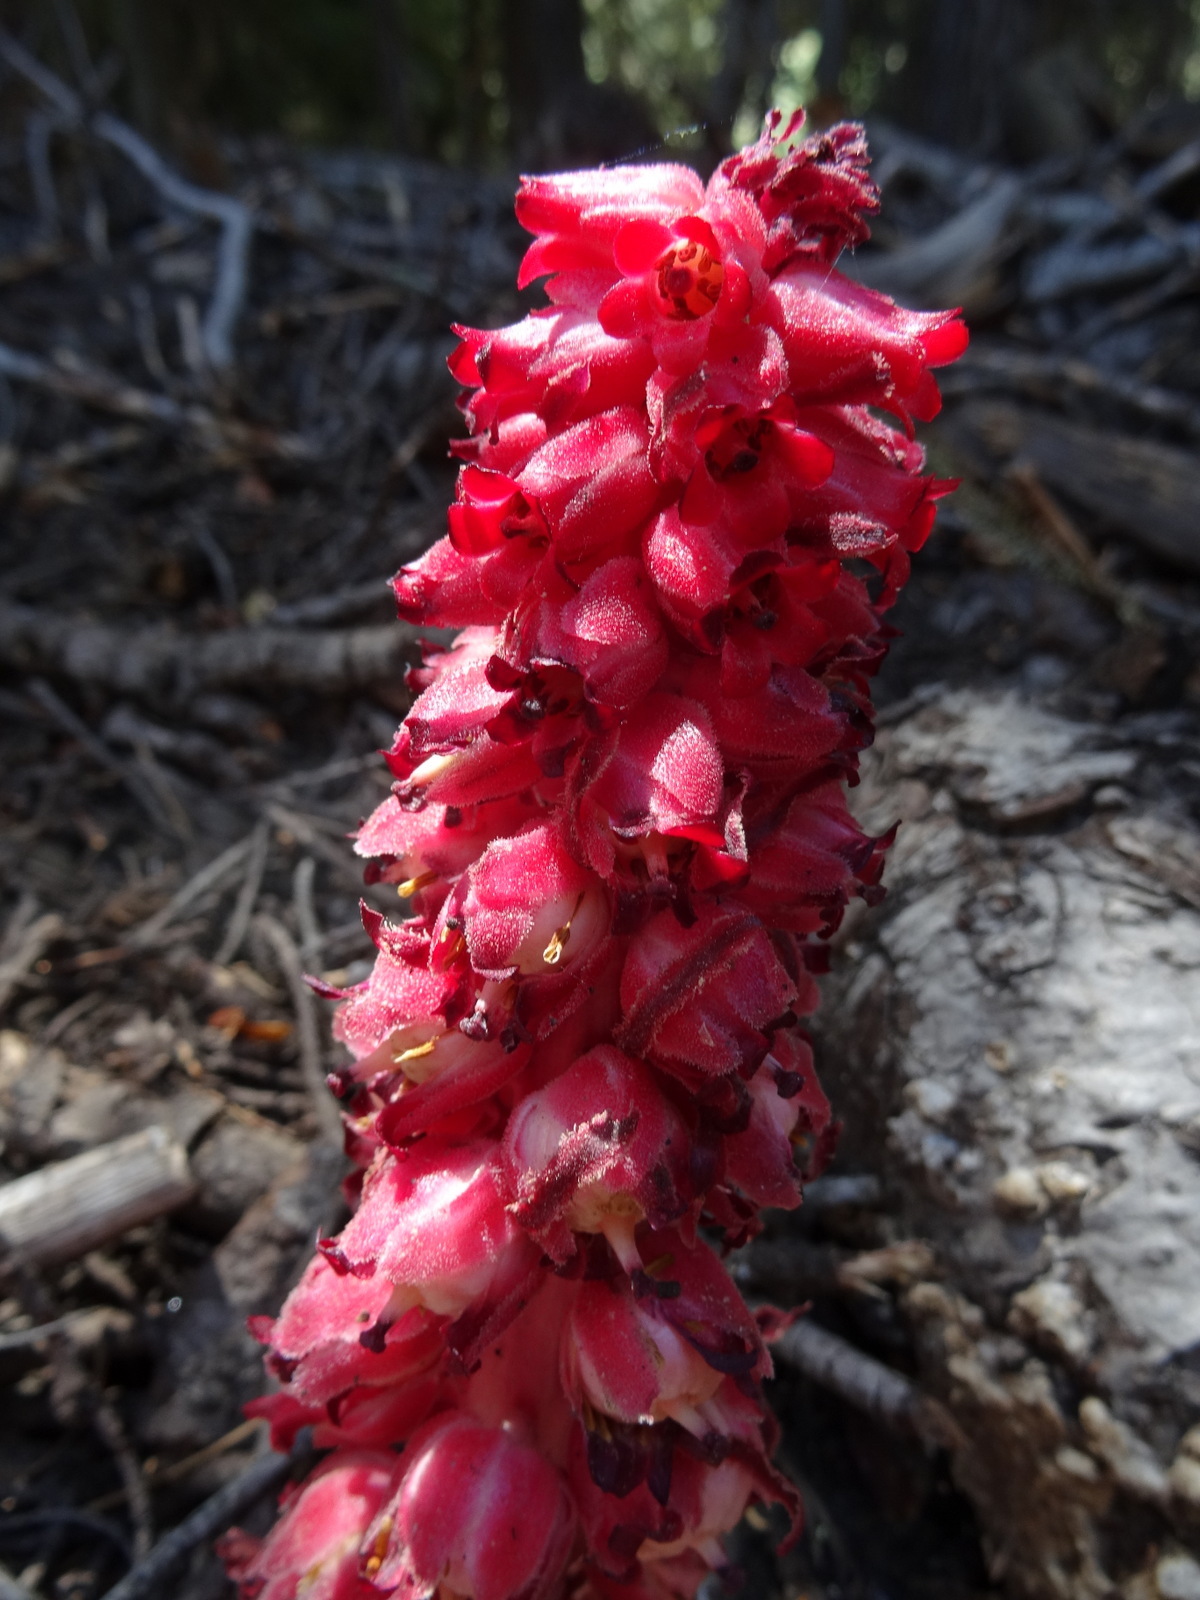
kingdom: Plantae
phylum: Tracheophyta
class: Magnoliopsida
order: Ericales
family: Ericaceae
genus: Sarcodes
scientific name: Sarcodes sanguinea
